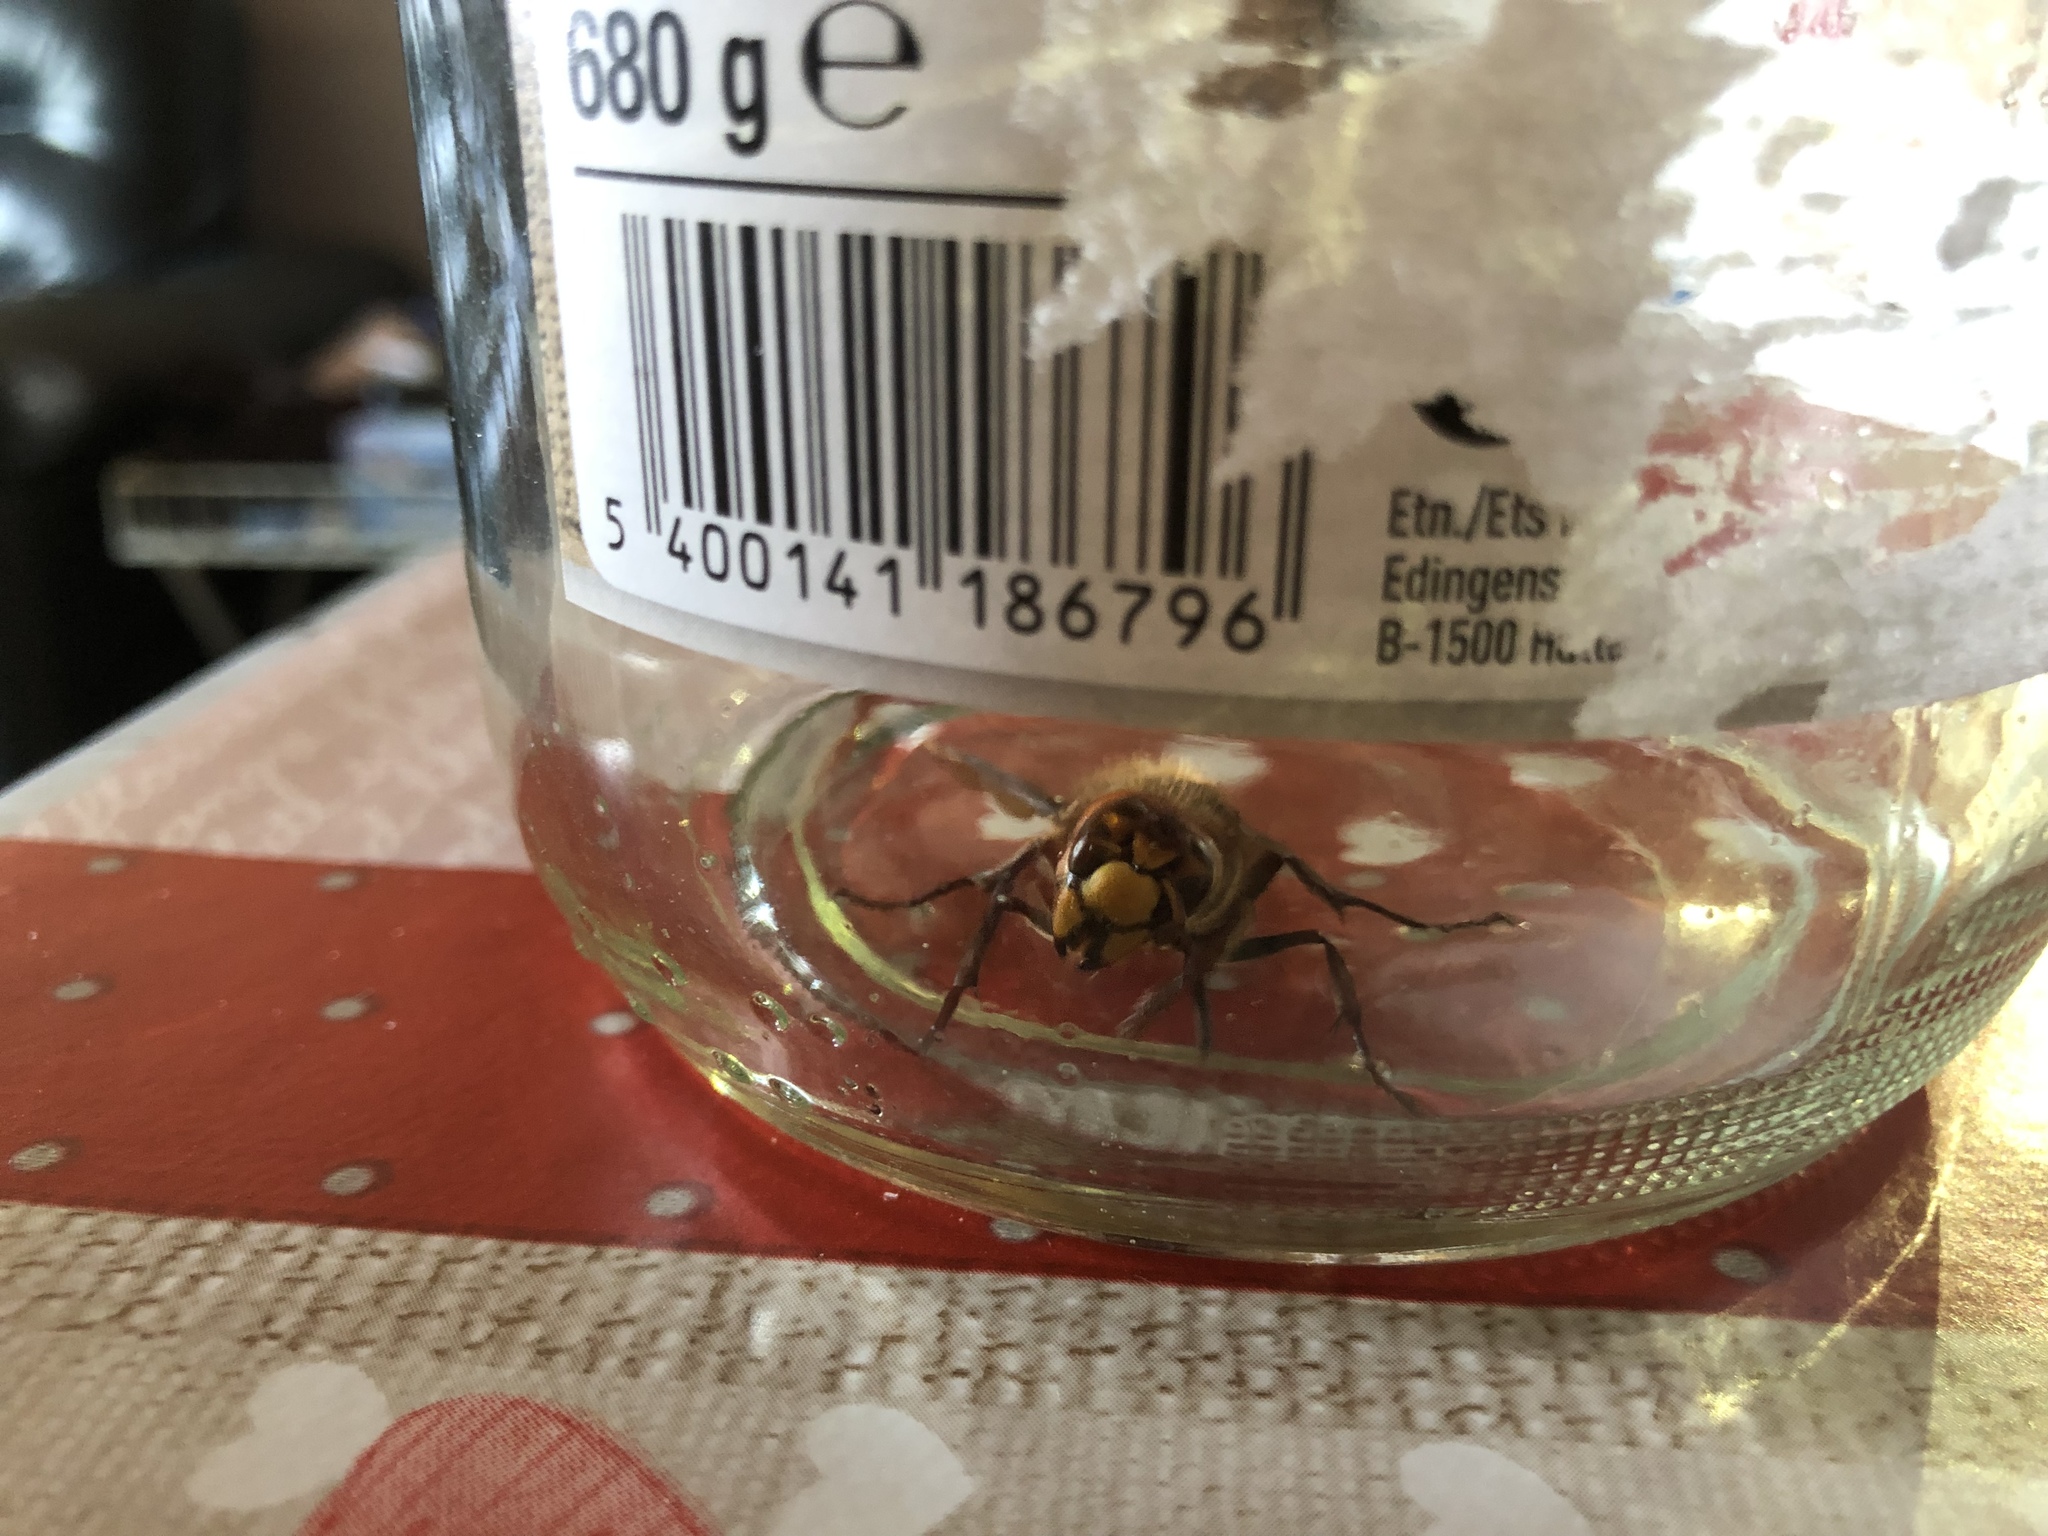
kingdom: Animalia
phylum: Arthropoda
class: Insecta
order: Hymenoptera
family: Vespidae
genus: Vespa
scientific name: Vespa crabro
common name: Hornet
